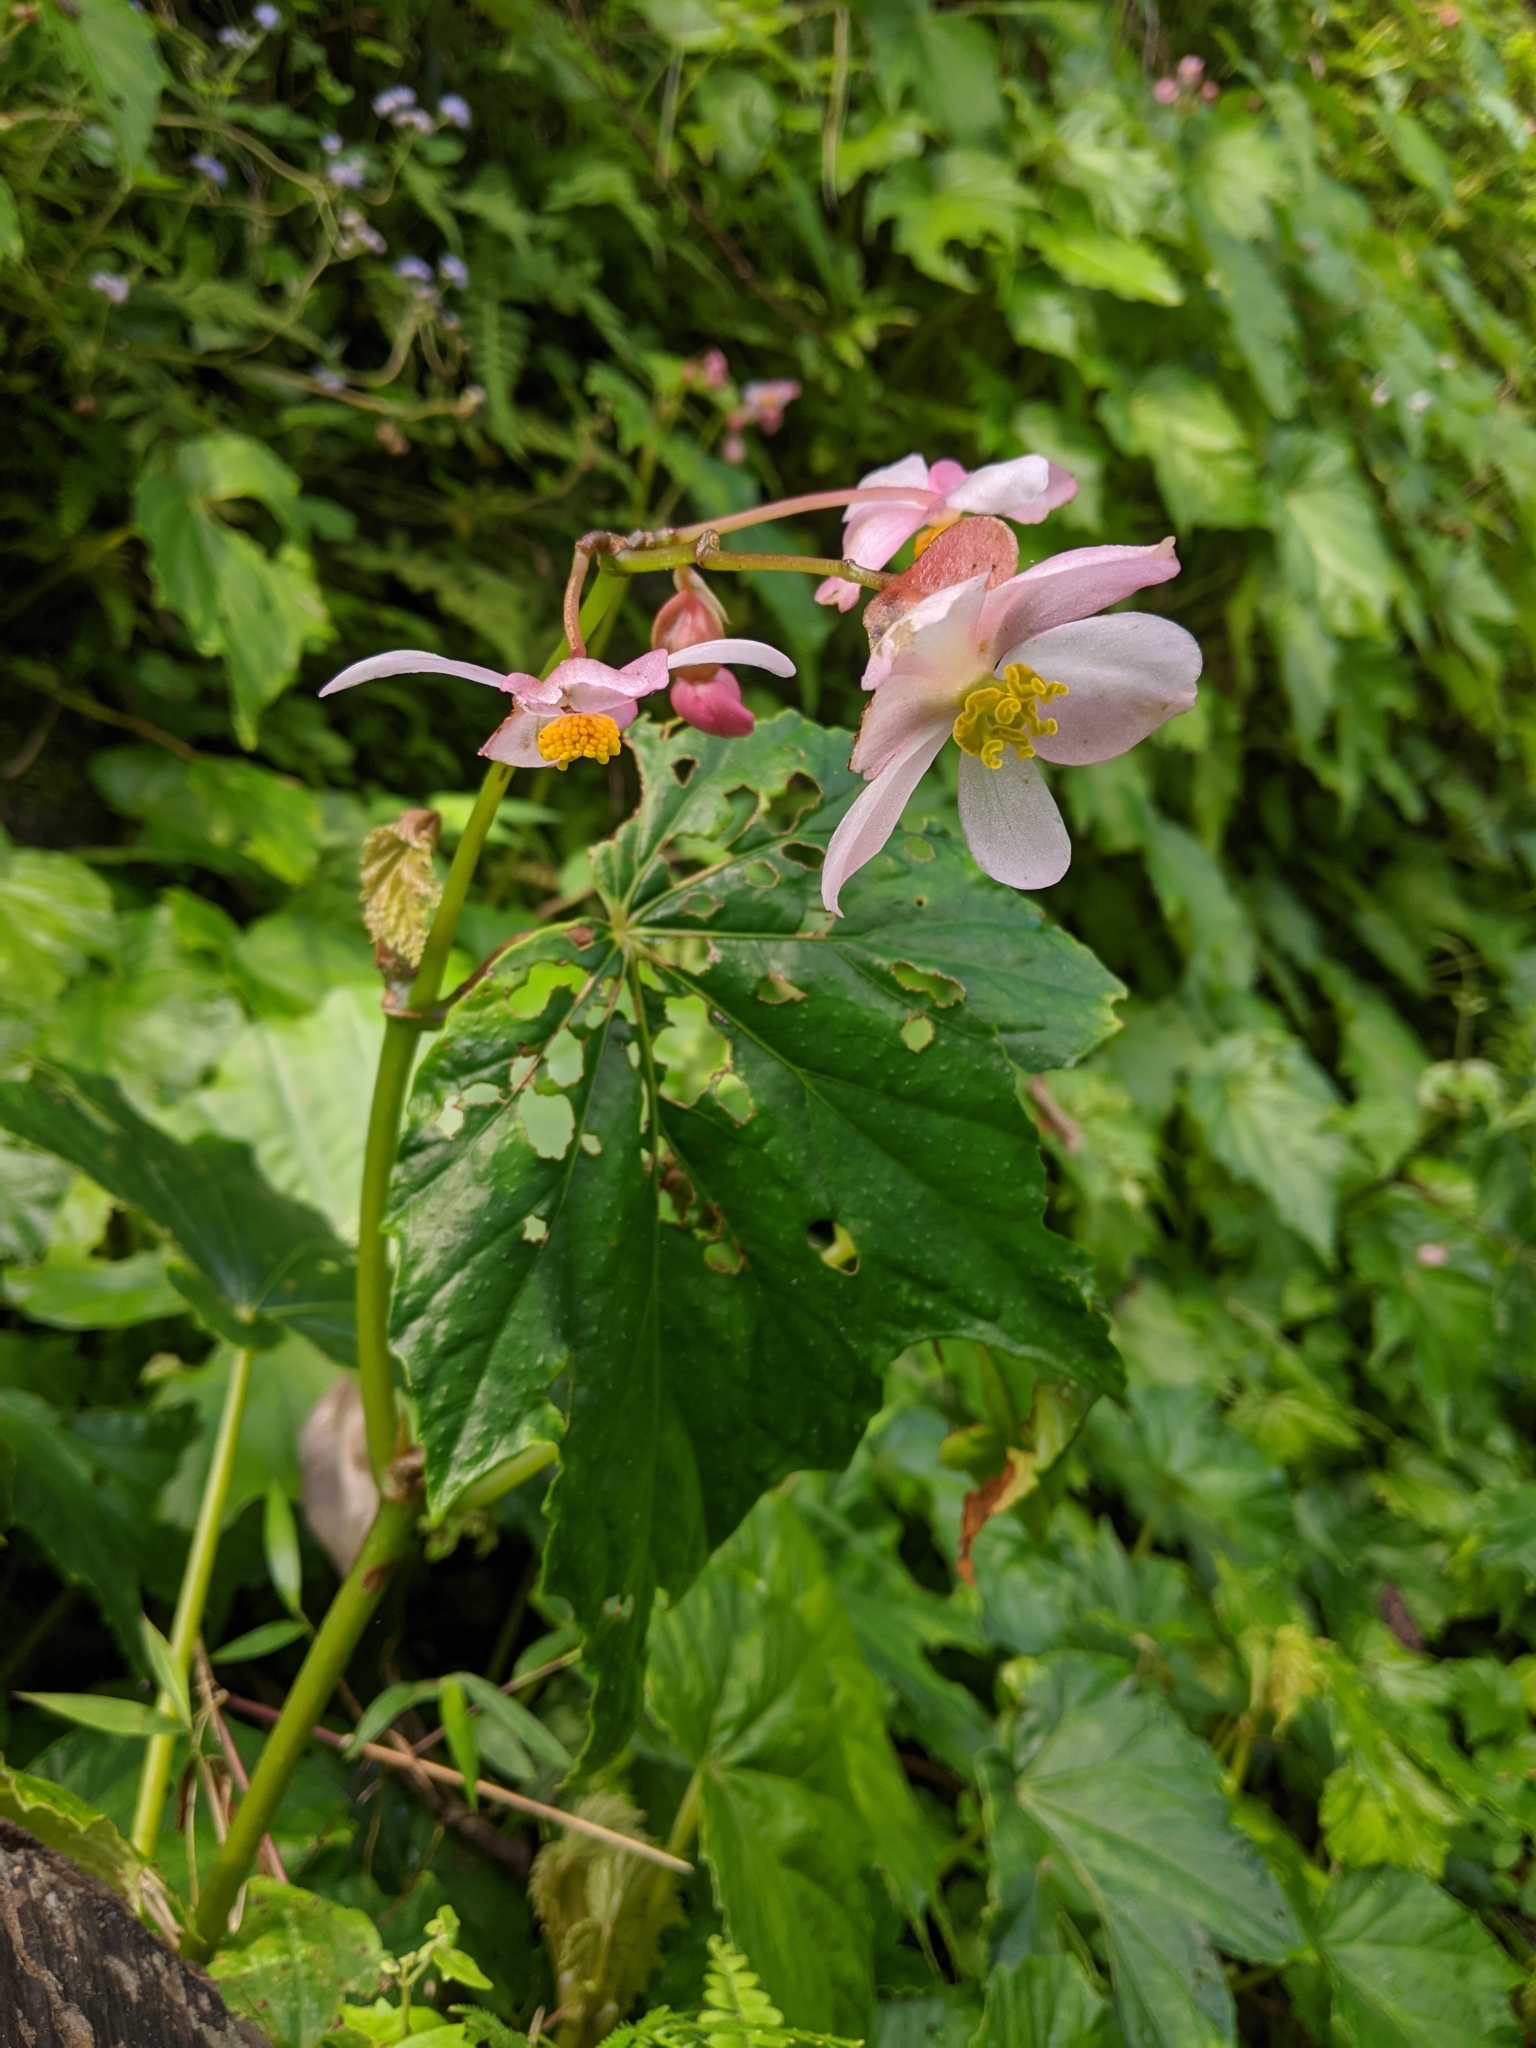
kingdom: Plantae
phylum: Tracheophyta
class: Magnoliopsida
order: Cucurbitales
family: Begoniaceae
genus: Begonia
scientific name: Begonia formosana
